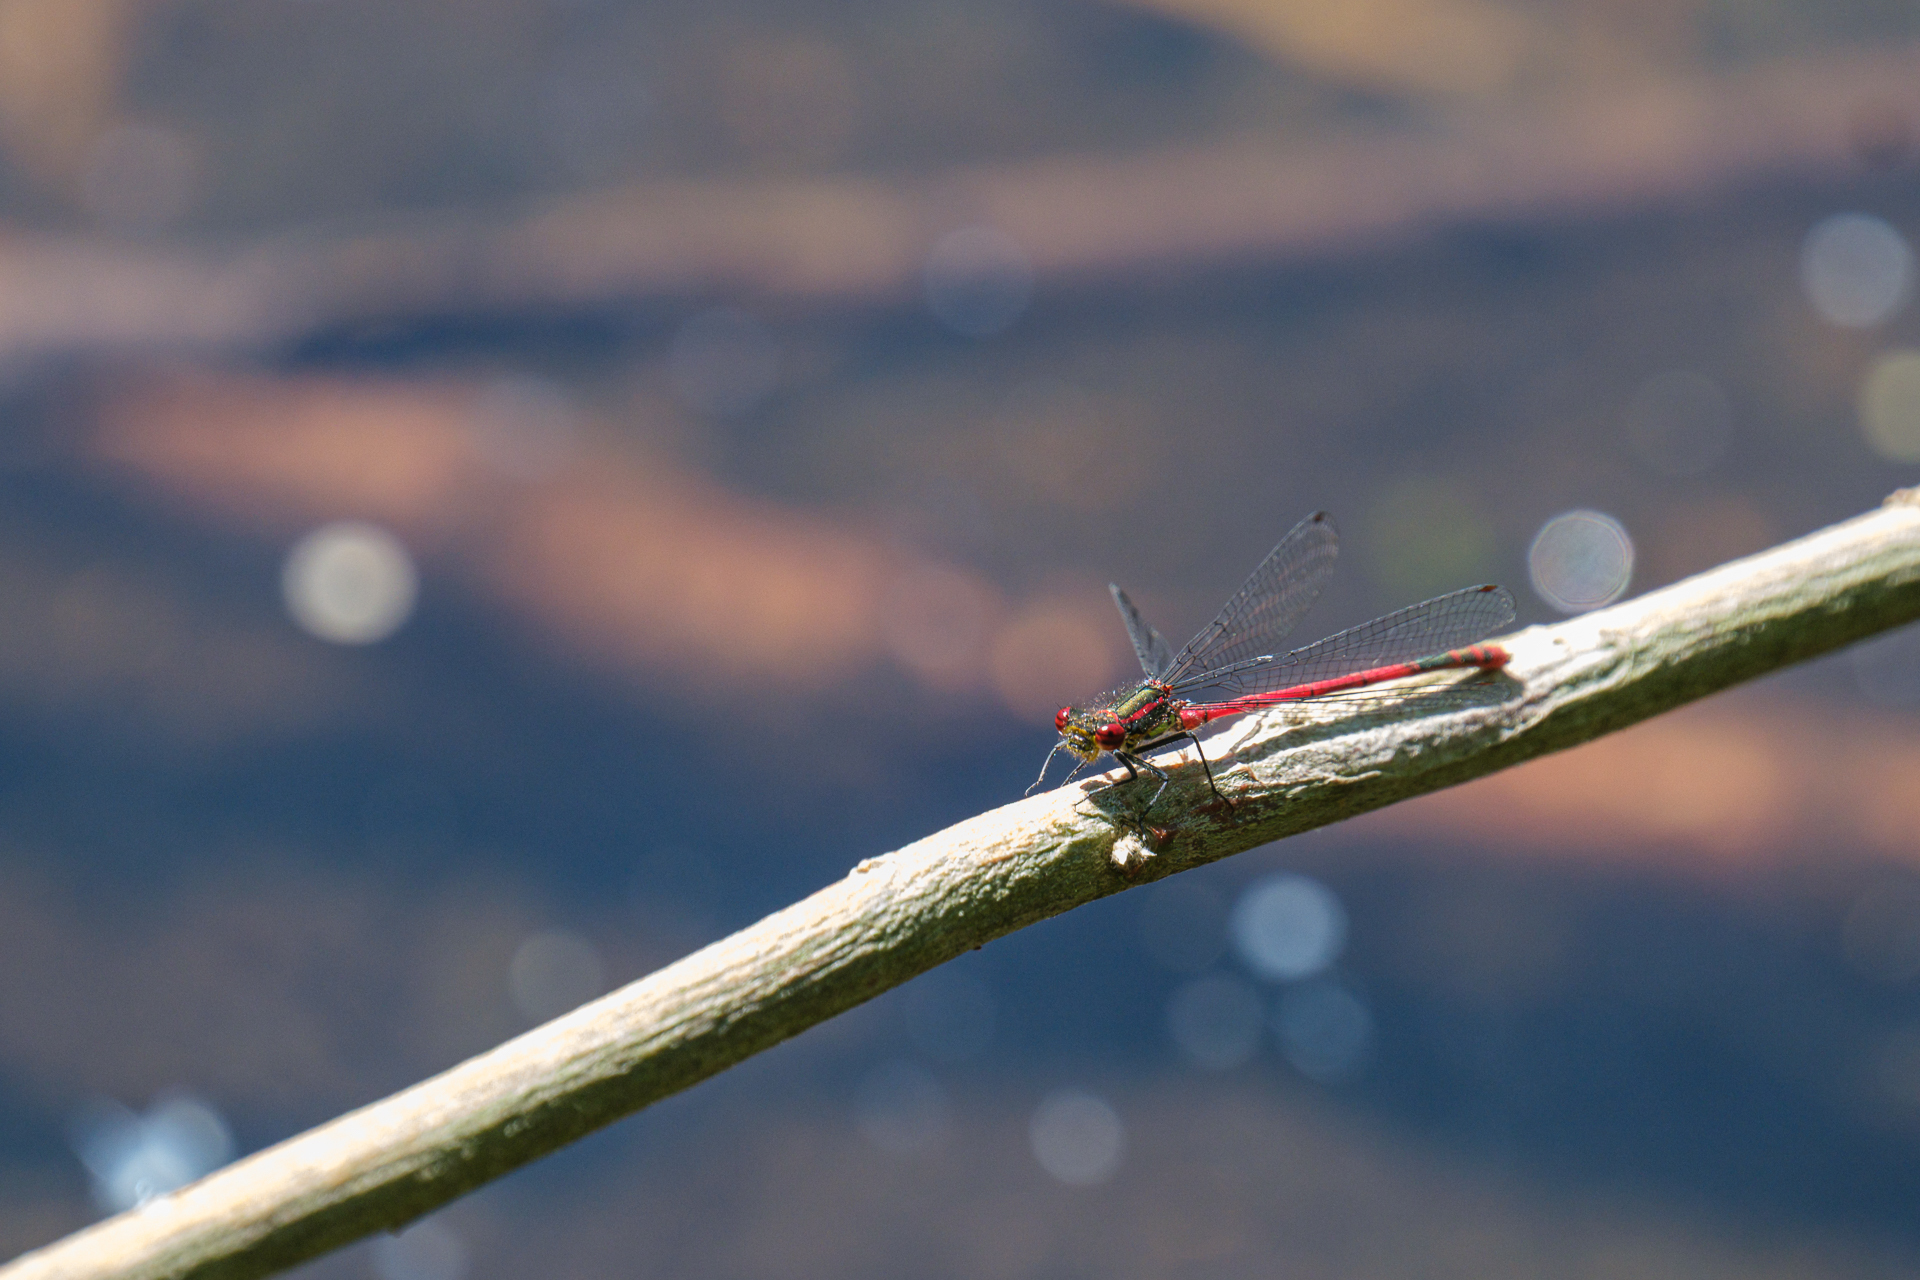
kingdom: Animalia
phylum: Arthropoda
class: Insecta
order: Odonata
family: Coenagrionidae
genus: Pyrrhosoma
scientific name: Pyrrhosoma nymphula
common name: Large red damsel
